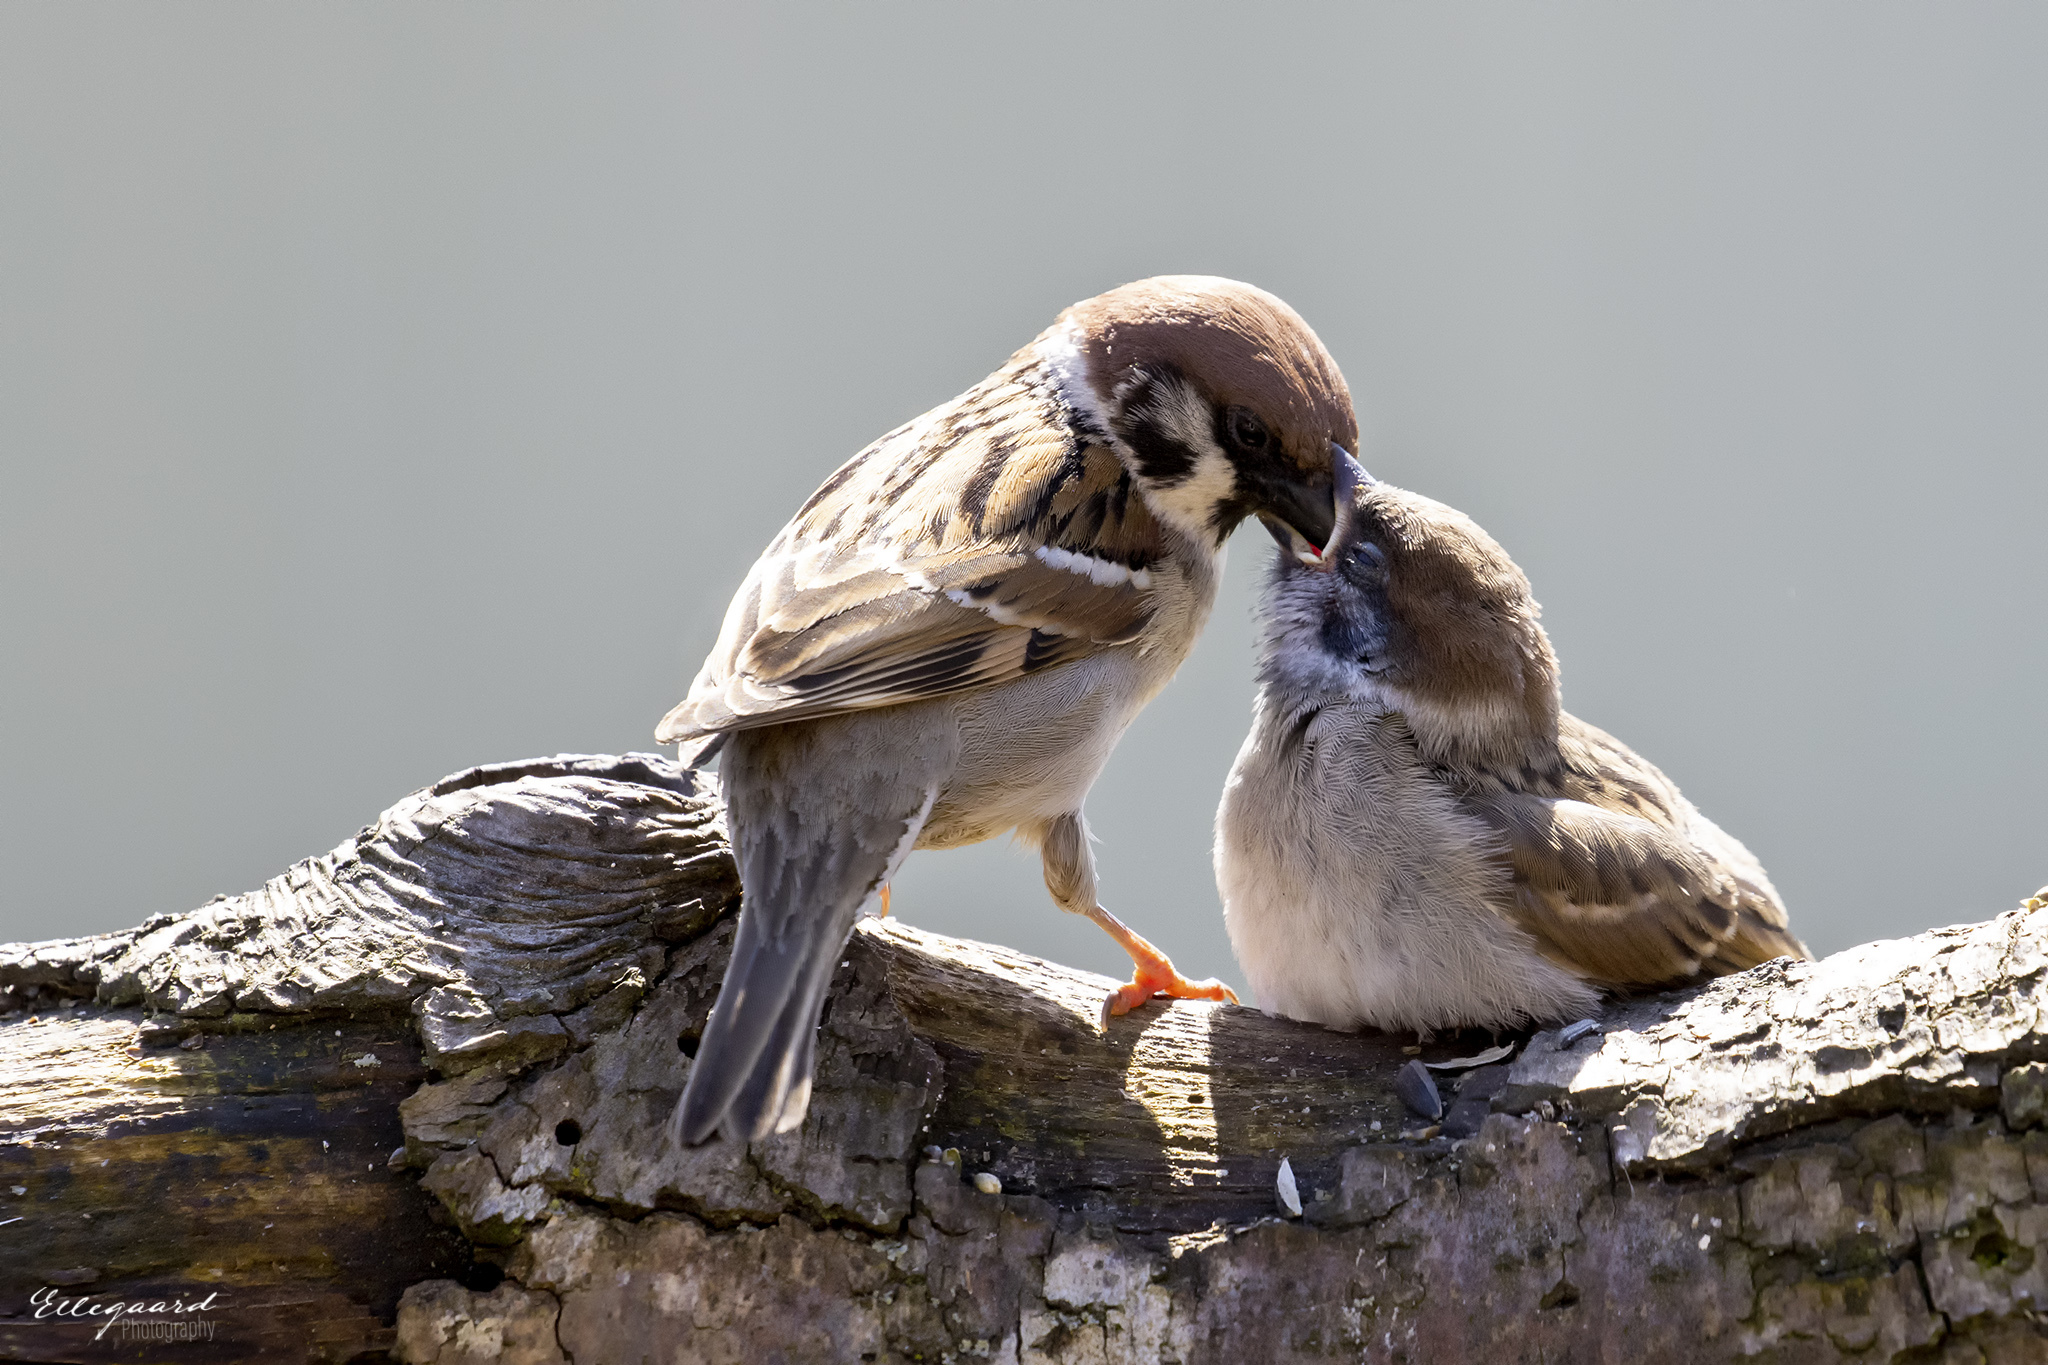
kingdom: Animalia
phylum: Chordata
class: Aves
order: Passeriformes
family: Passeridae
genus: Passer
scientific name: Passer montanus
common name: Eurasian tree sparrow
